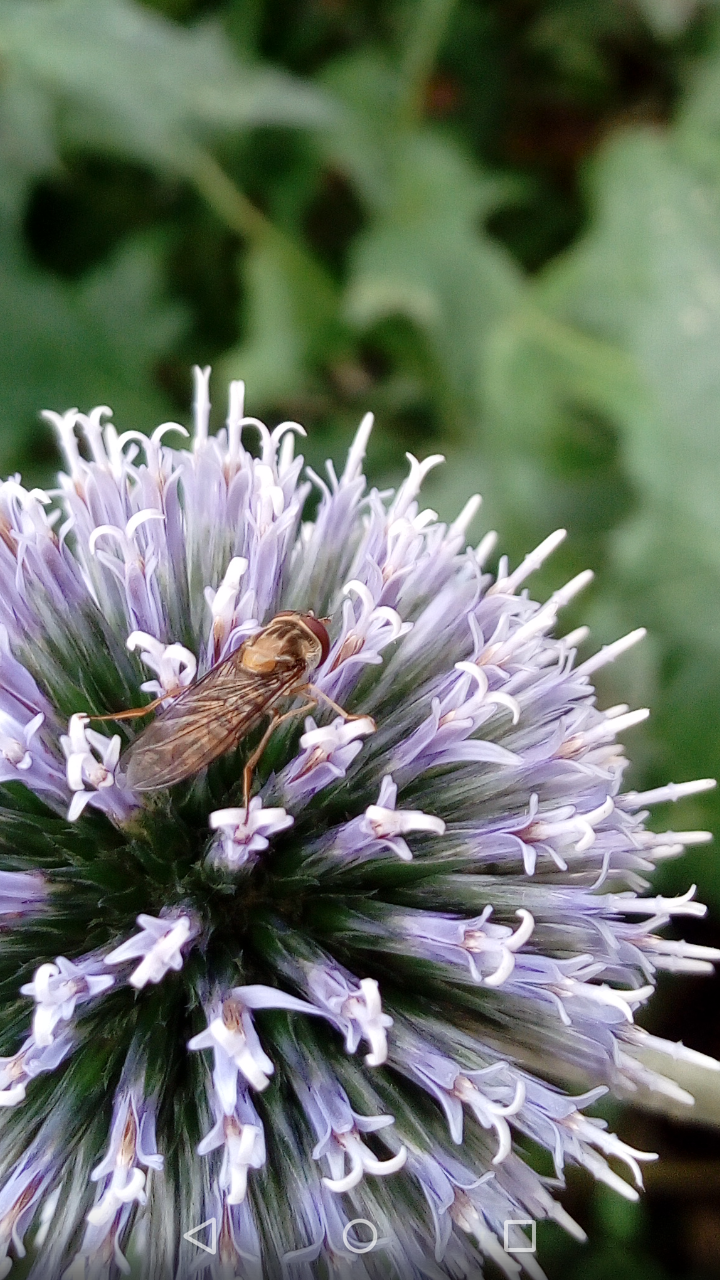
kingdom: Animalia
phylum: Arthropoda
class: Insecta
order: Diptera
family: Syrphidae
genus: Episyrphus
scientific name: Episyrphus balteatus
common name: Marmalade hoverfly
